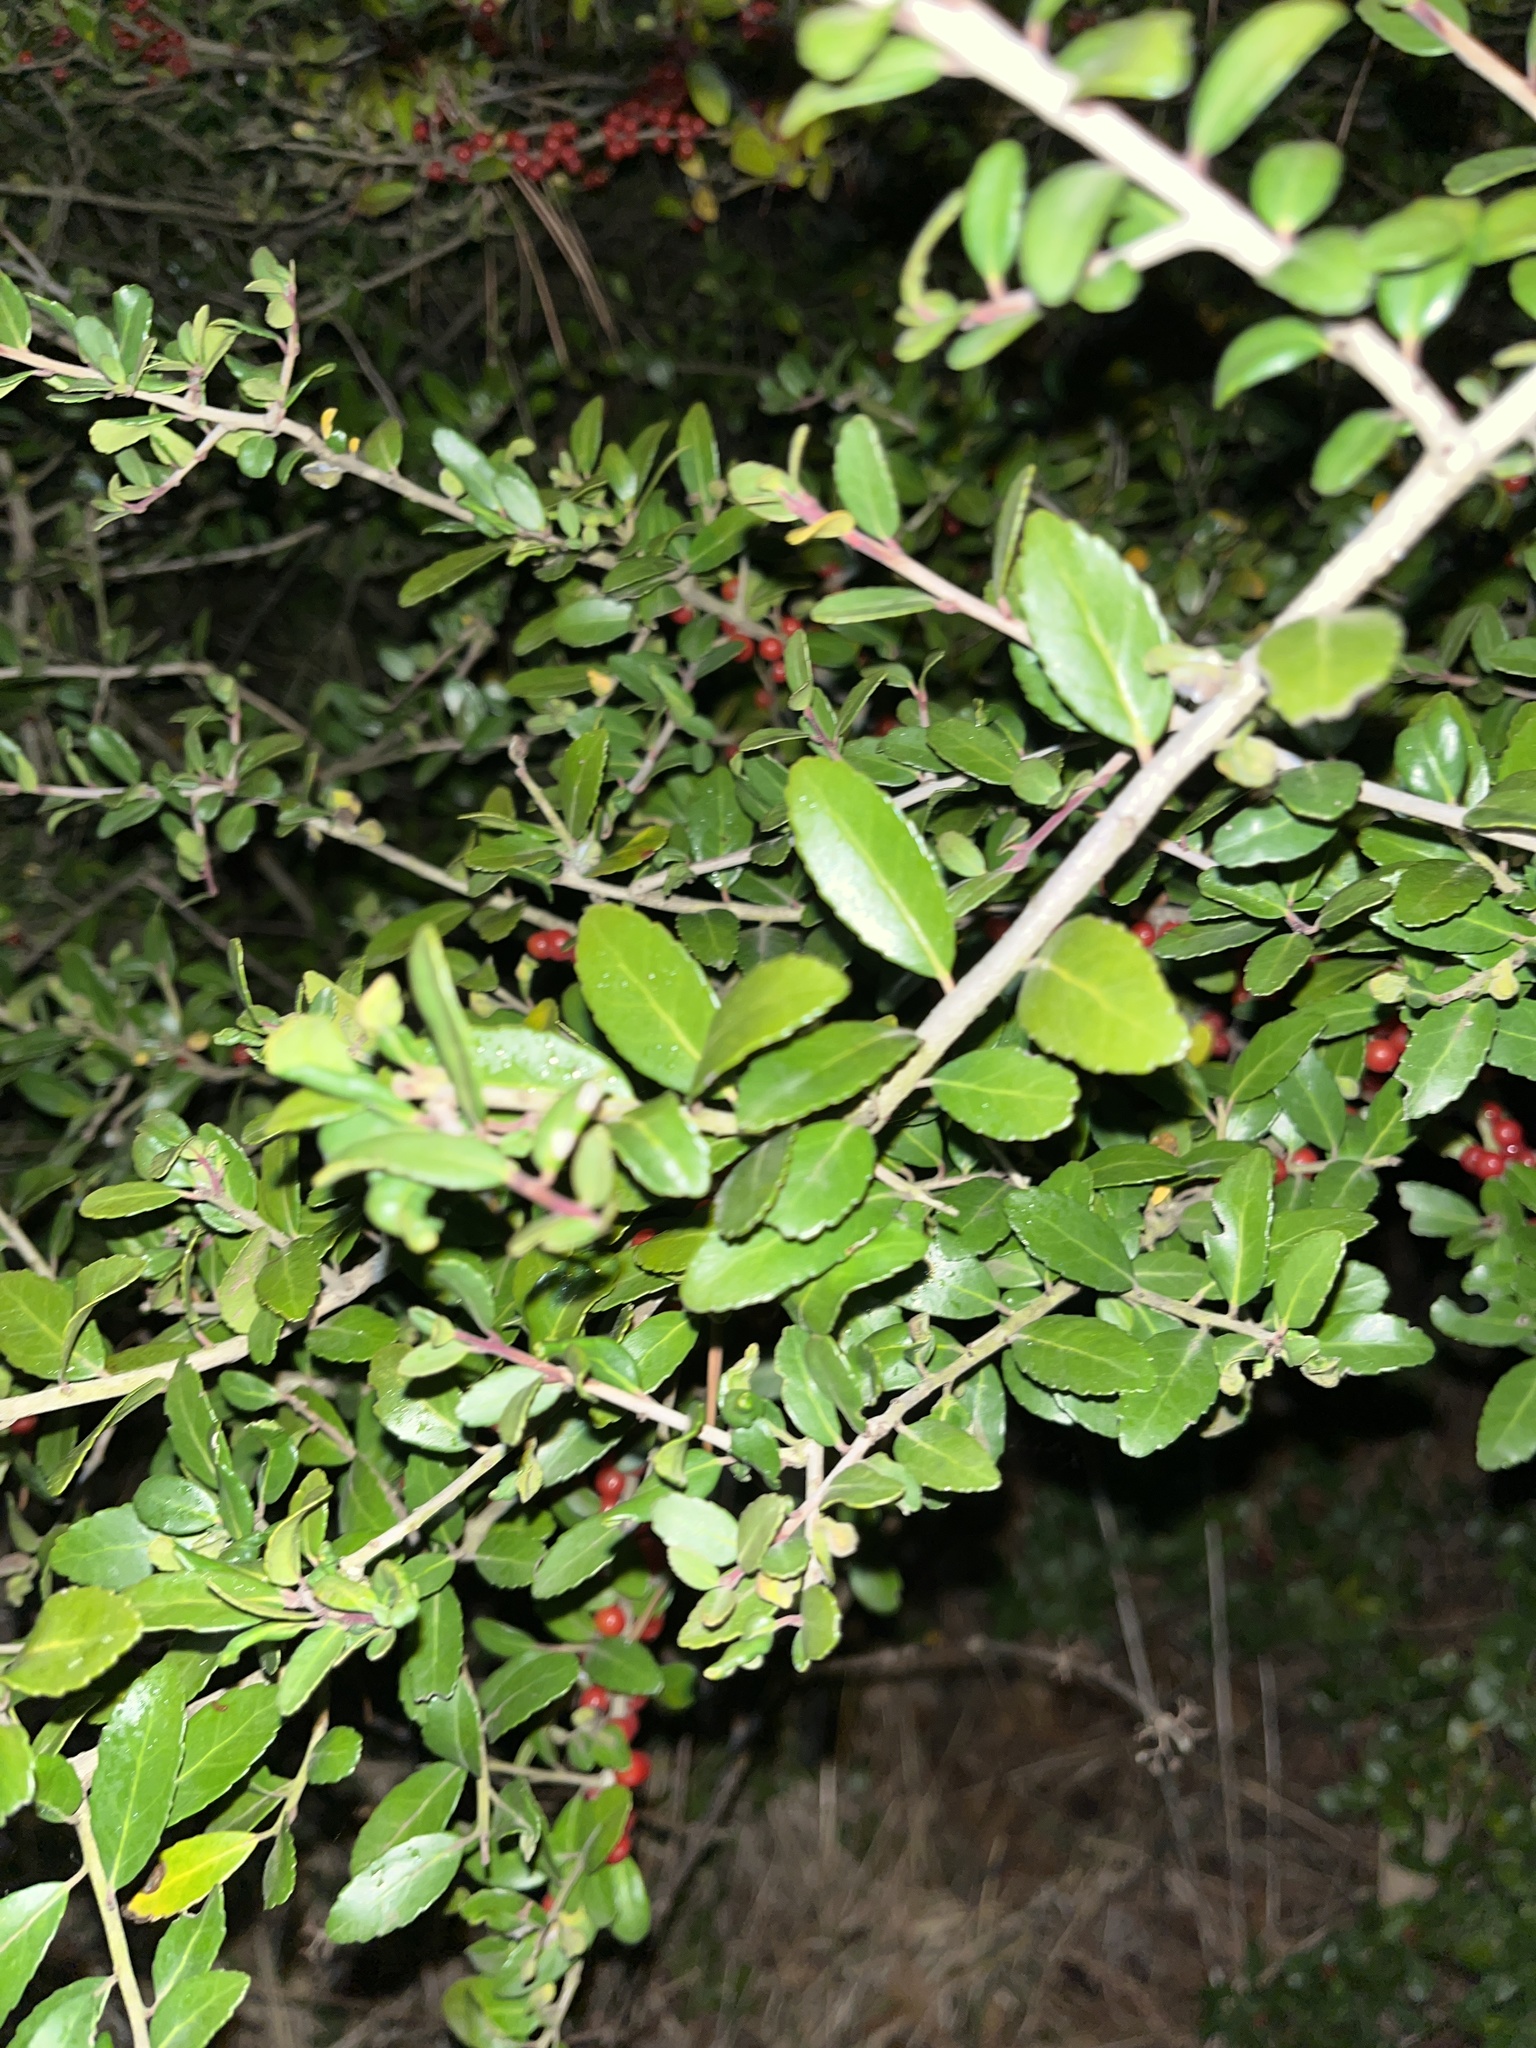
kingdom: Plantae
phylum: Tracheophyta
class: Magnoliopsida
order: Aquifoliales
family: Aquifoliaceae
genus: Ilex
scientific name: Ilex vomitoria
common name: Yaupon holly
